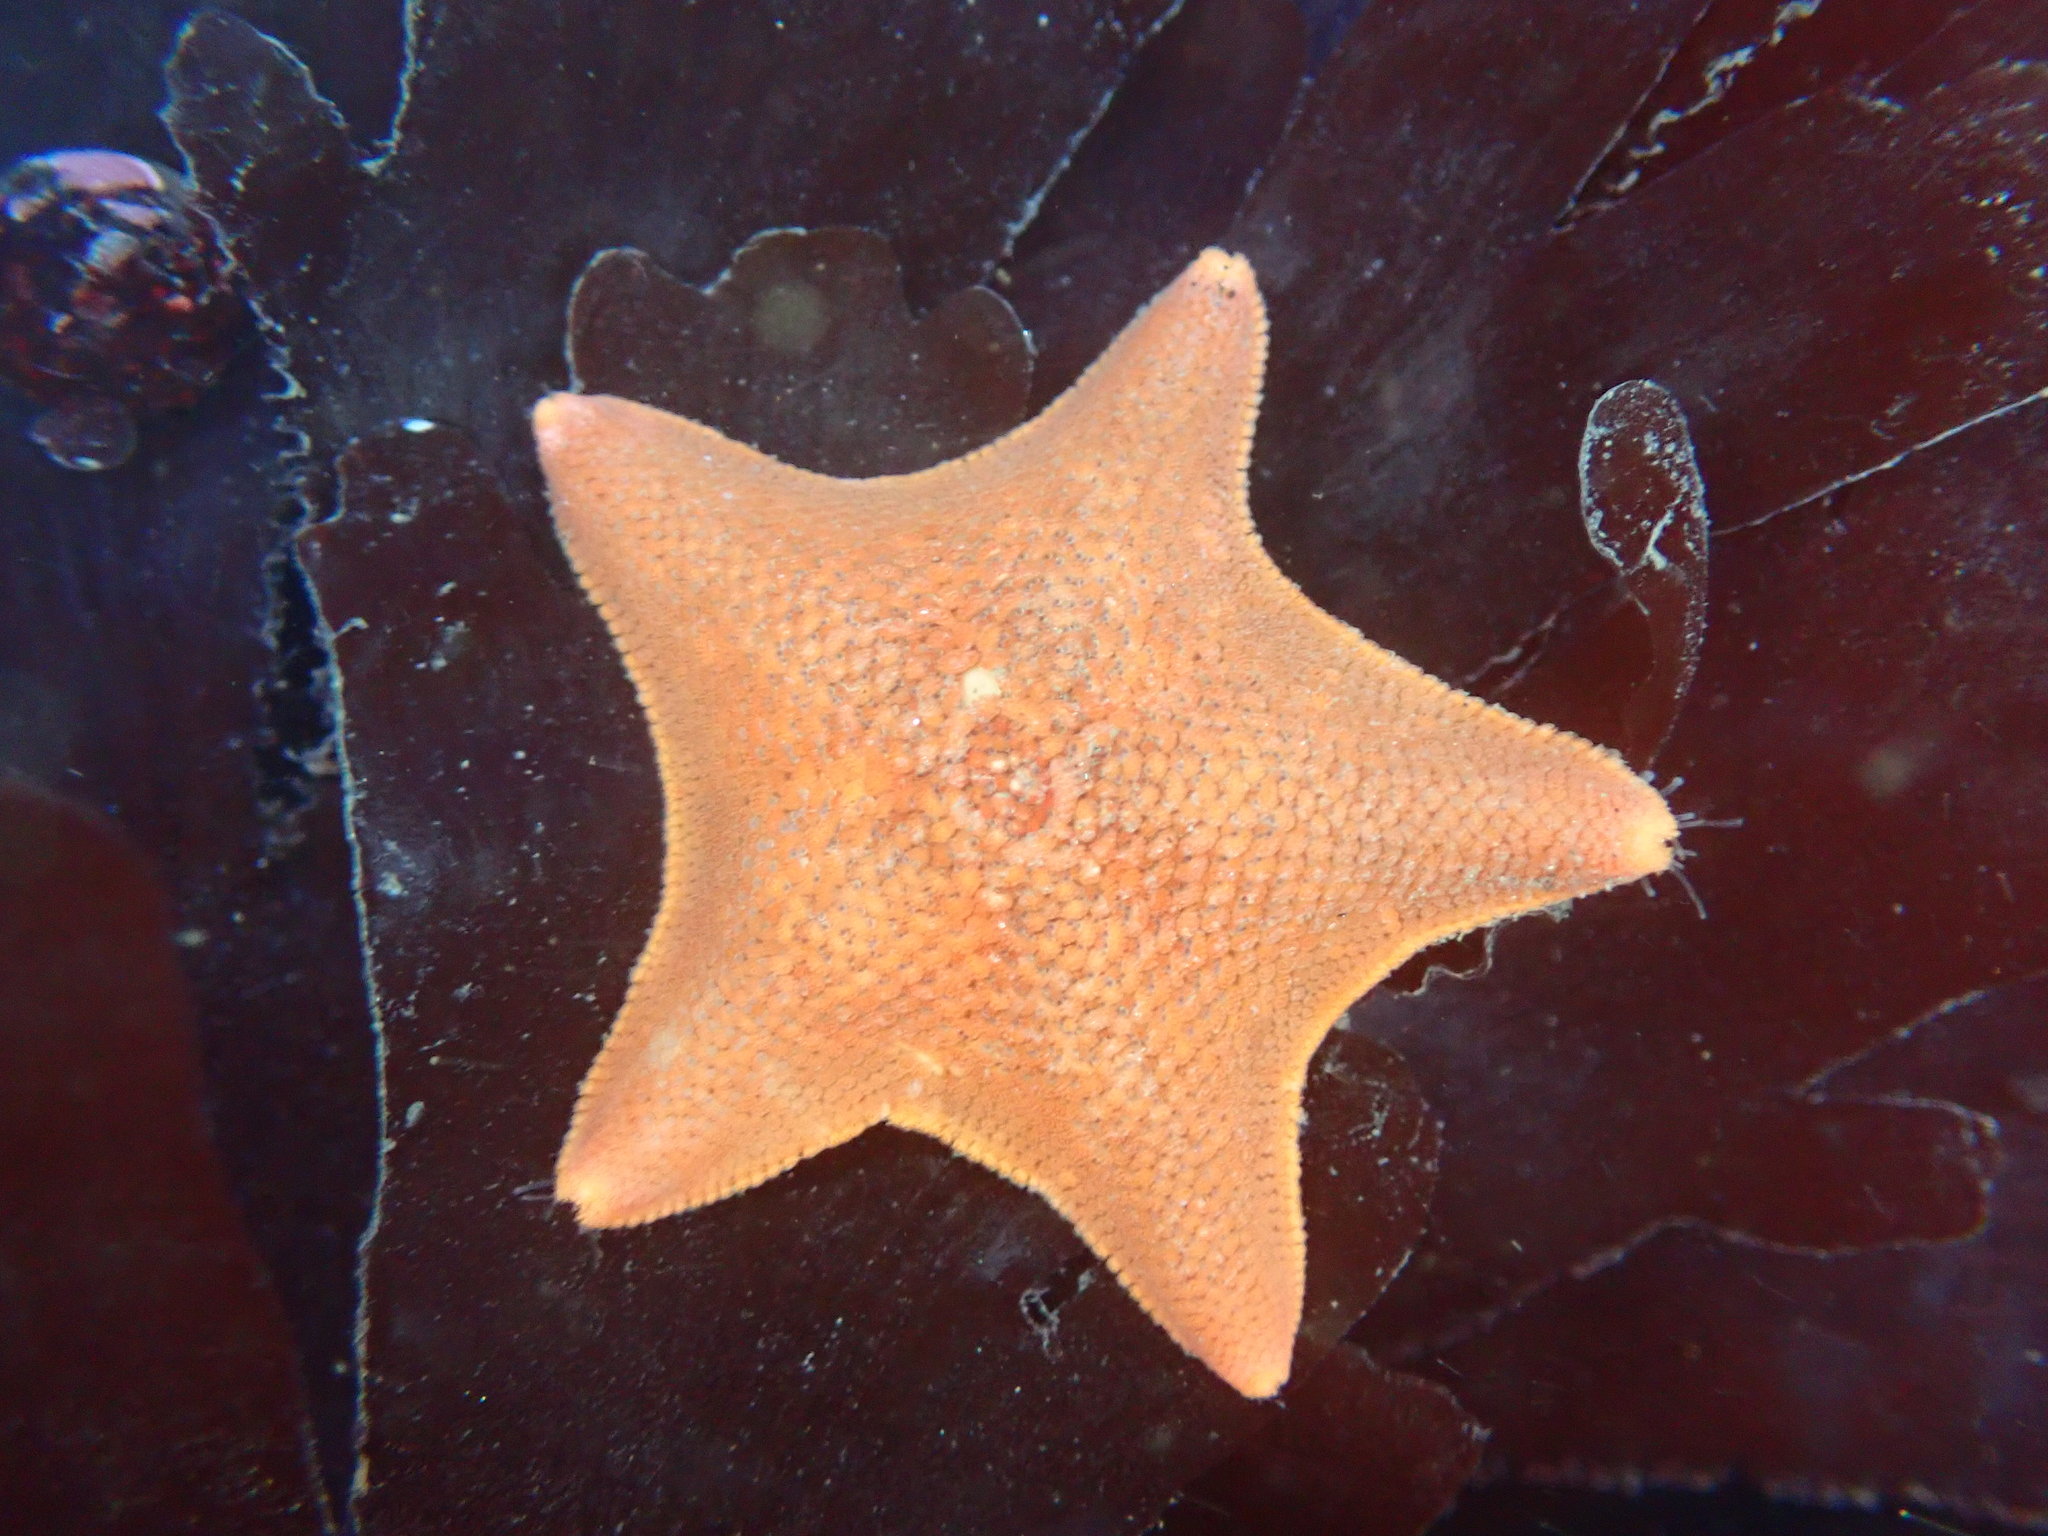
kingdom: Animalia
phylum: Echinodermata
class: Asteroidea
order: Valvatida
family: Asterinidae
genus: Patiria
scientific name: Patiria miniata
